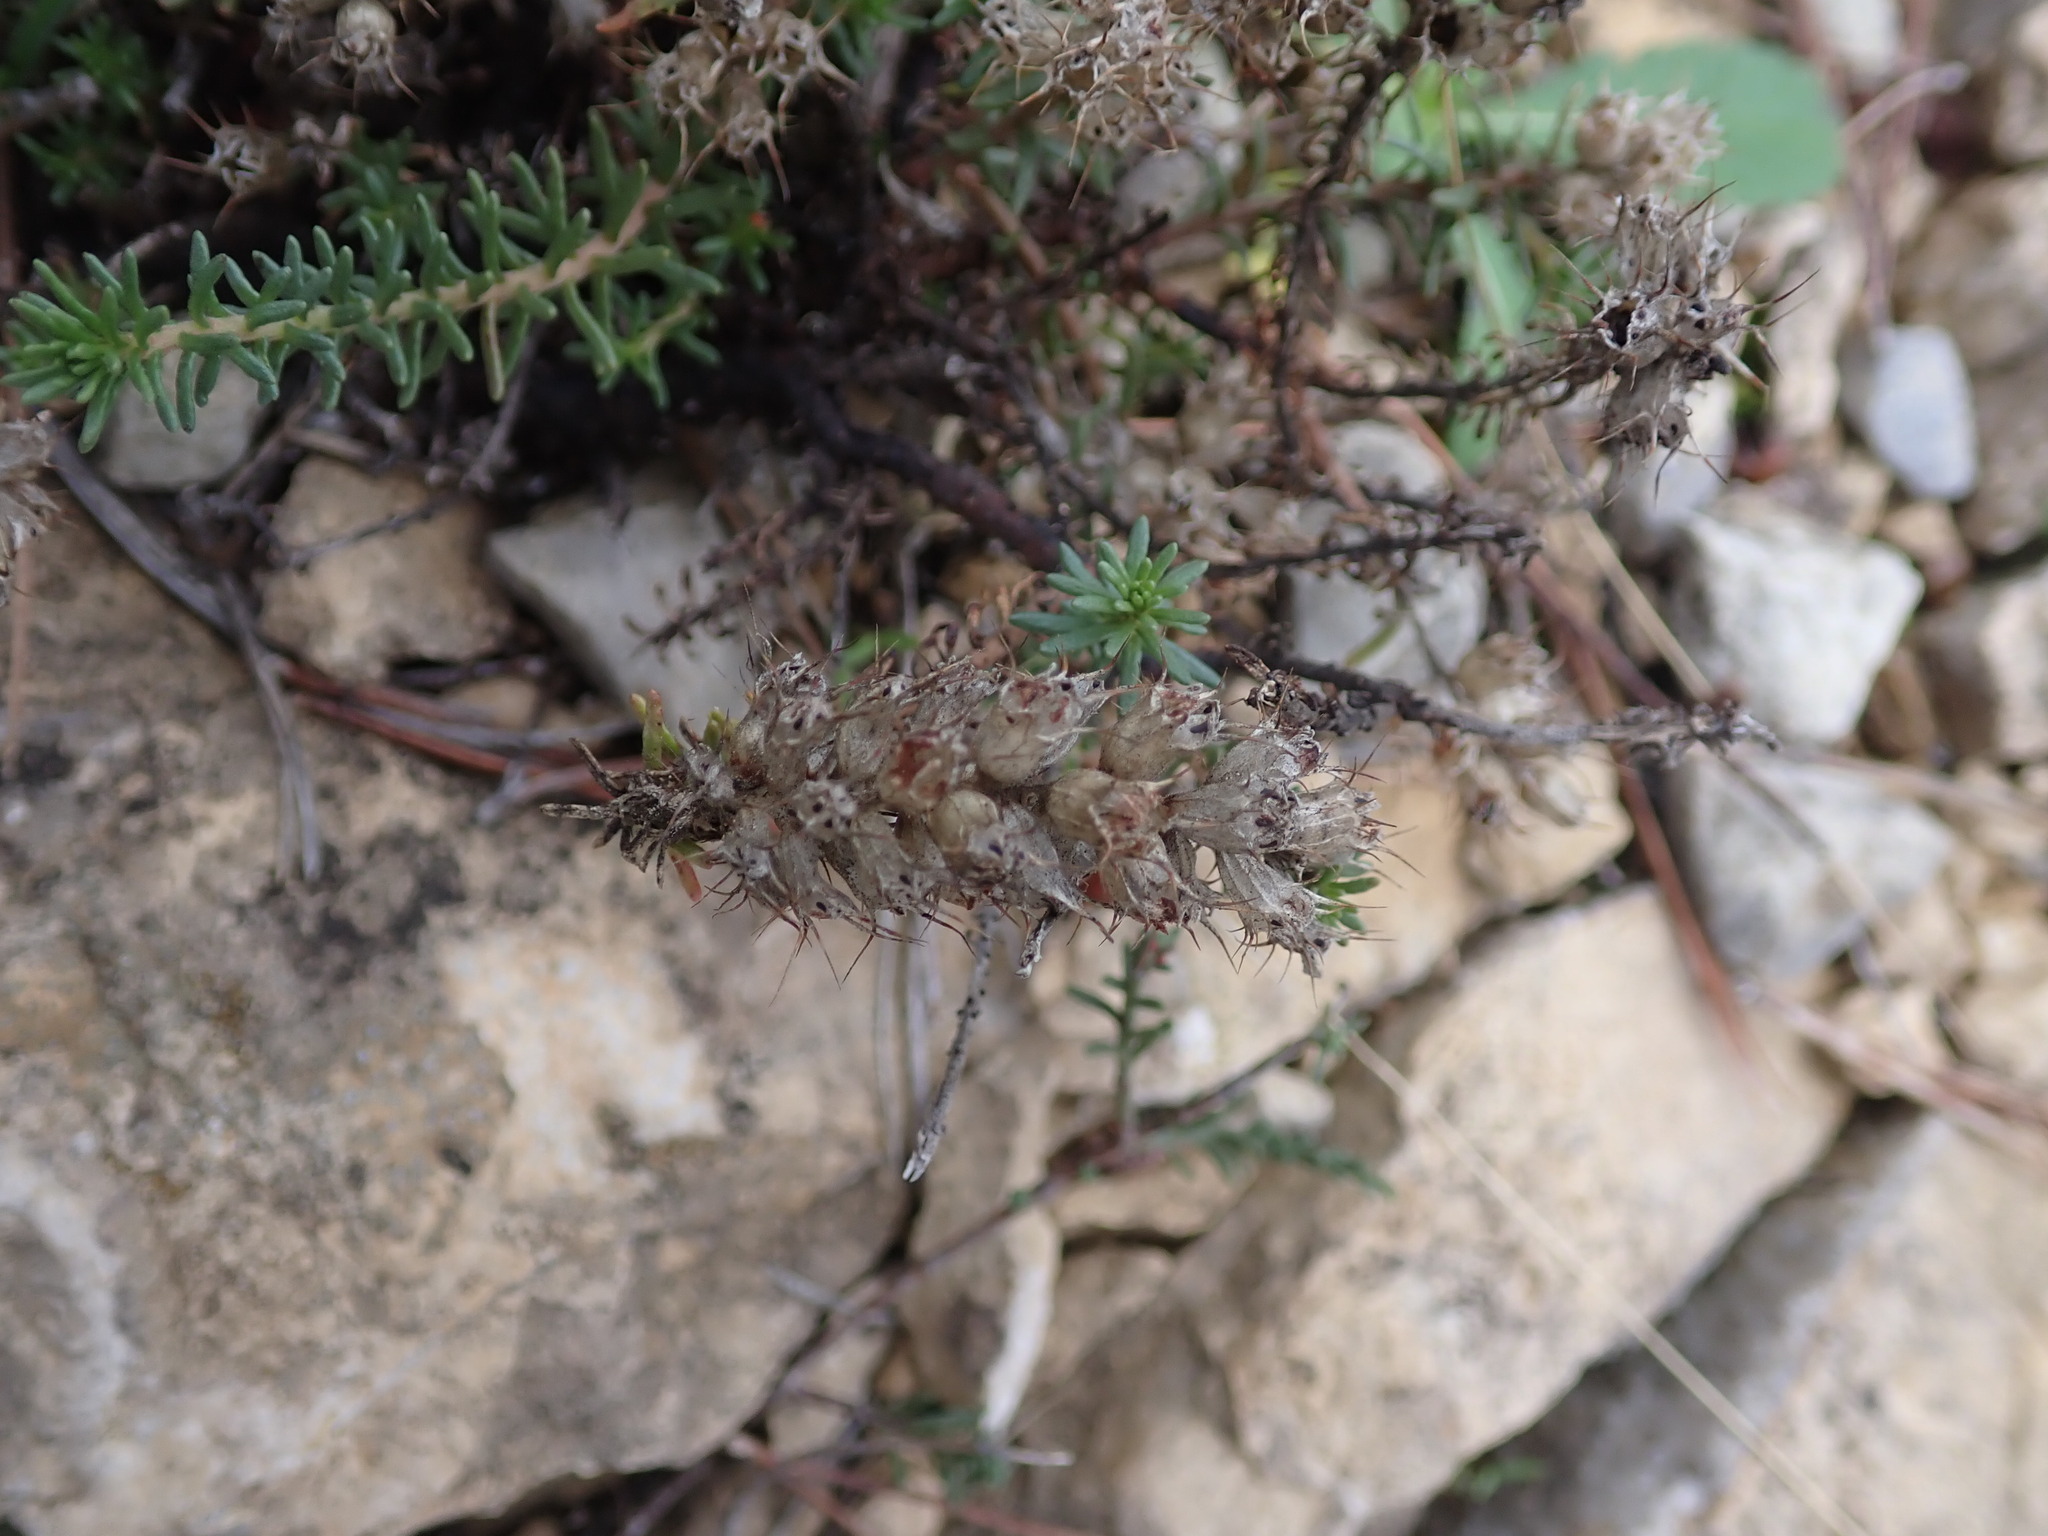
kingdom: Plantae
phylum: Tracheophyta
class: Magnoliopsida
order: Ericales
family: Primulaceae
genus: Coris
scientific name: Coris monspeliensis
